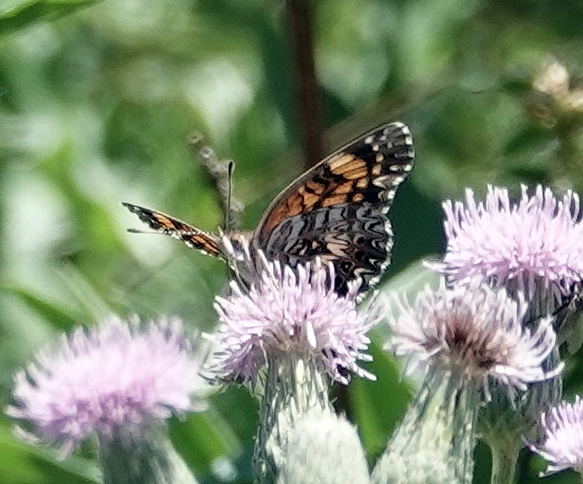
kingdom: Animalia
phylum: Arthropoda
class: Insecta
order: Lepidoptera
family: Nymphalidae
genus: Chlosyne
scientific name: Chlosyne gorgone
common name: Gorgone checkerspot
